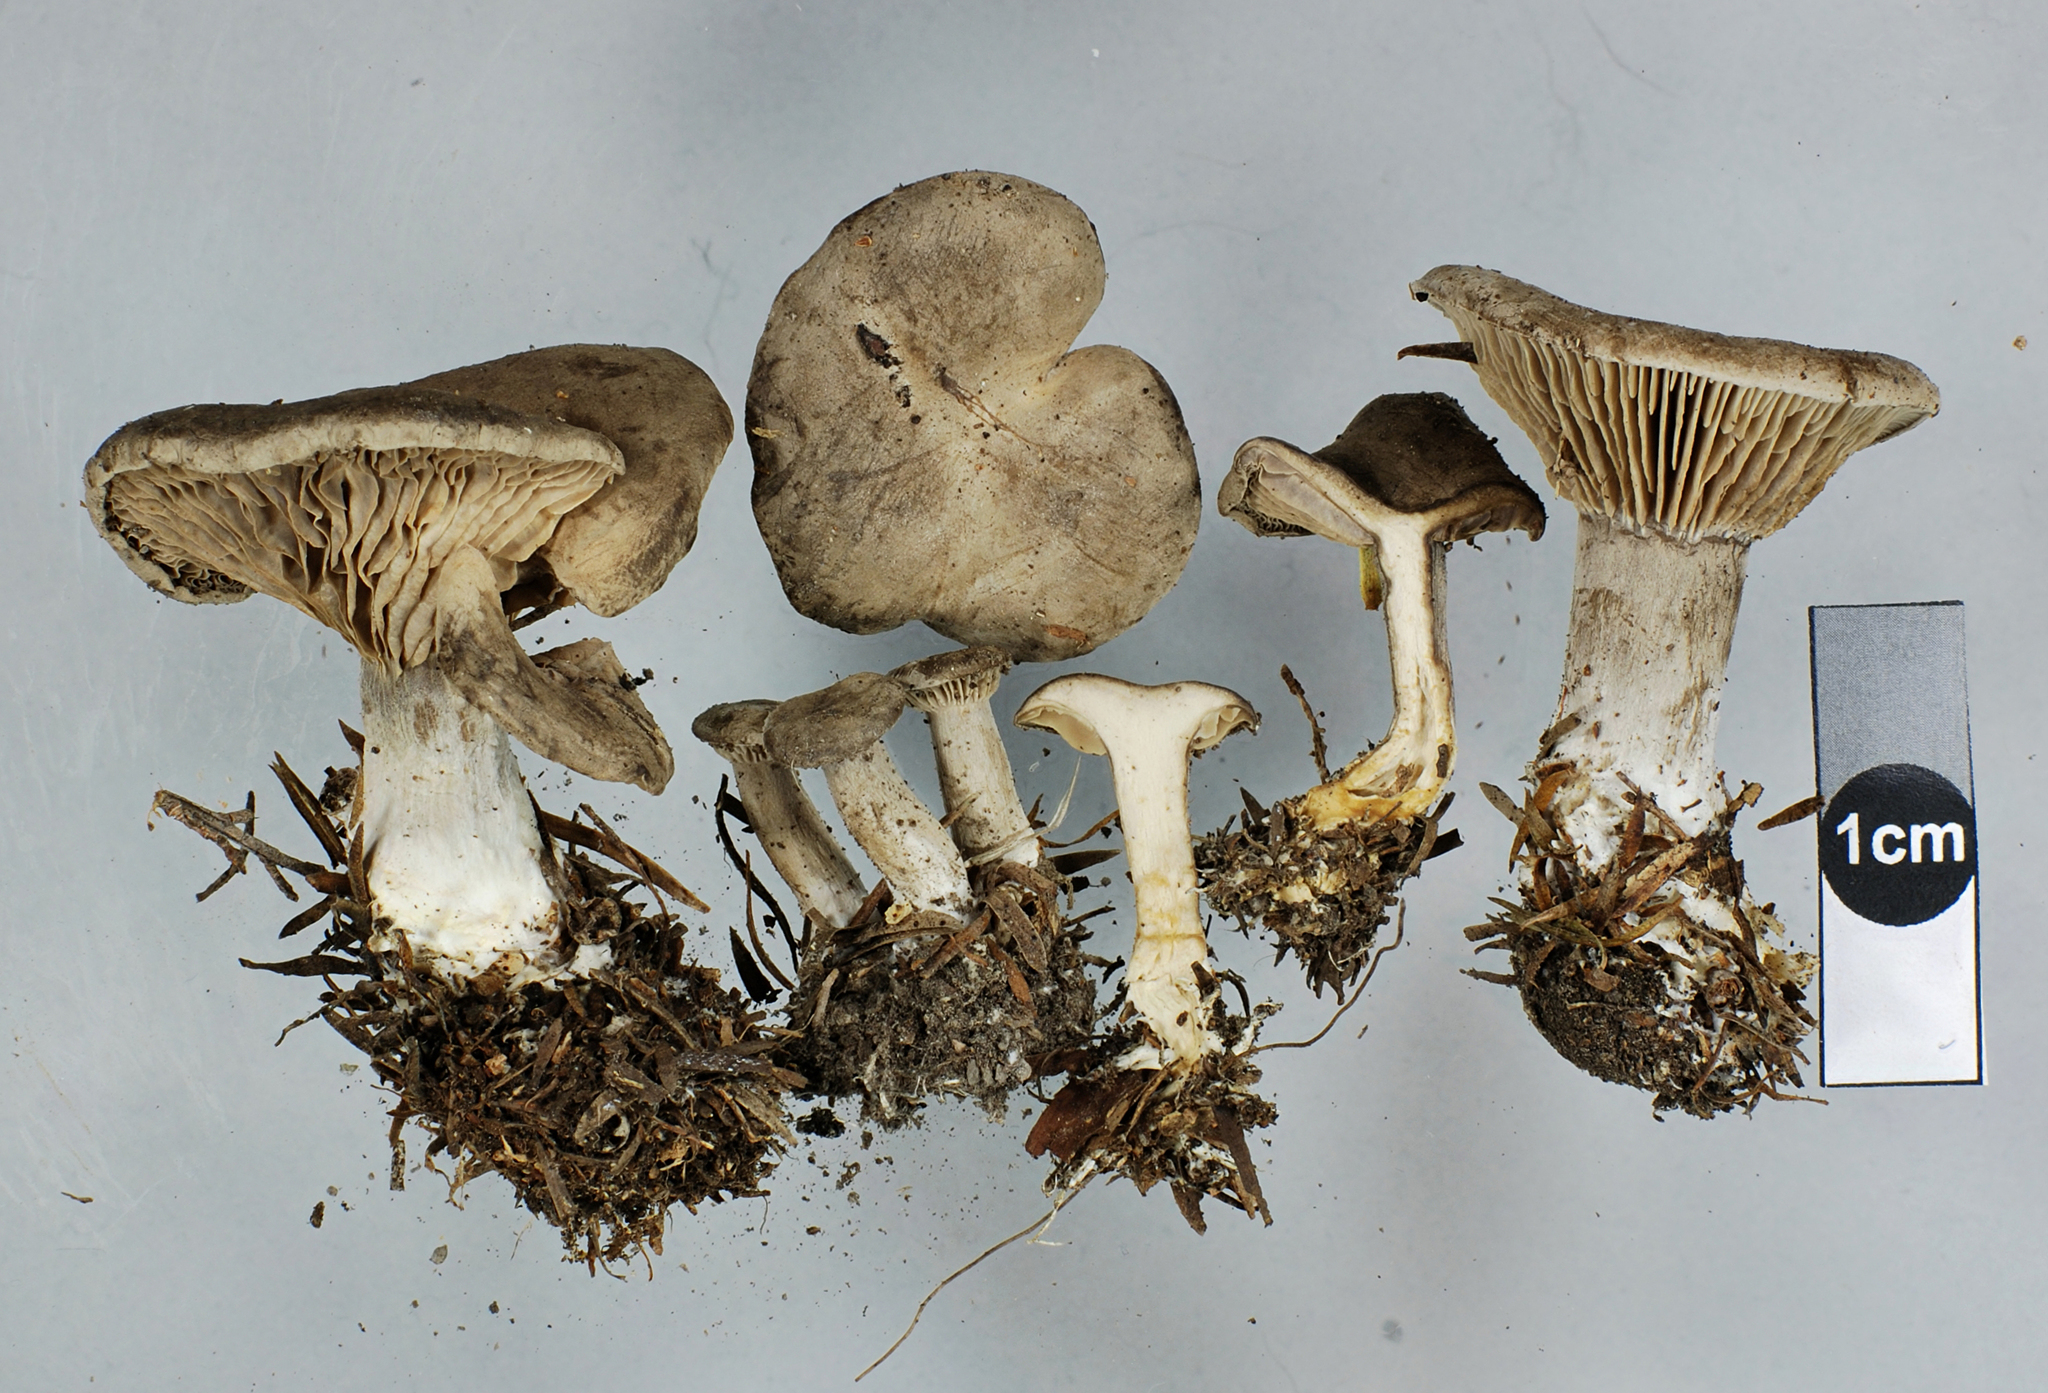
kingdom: Fungi
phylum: Basidiomycota
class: Agaricomycetes
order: Agaricales
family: Entolomataceae
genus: Clitopilus
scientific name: Clitopilus pallidogriseus
